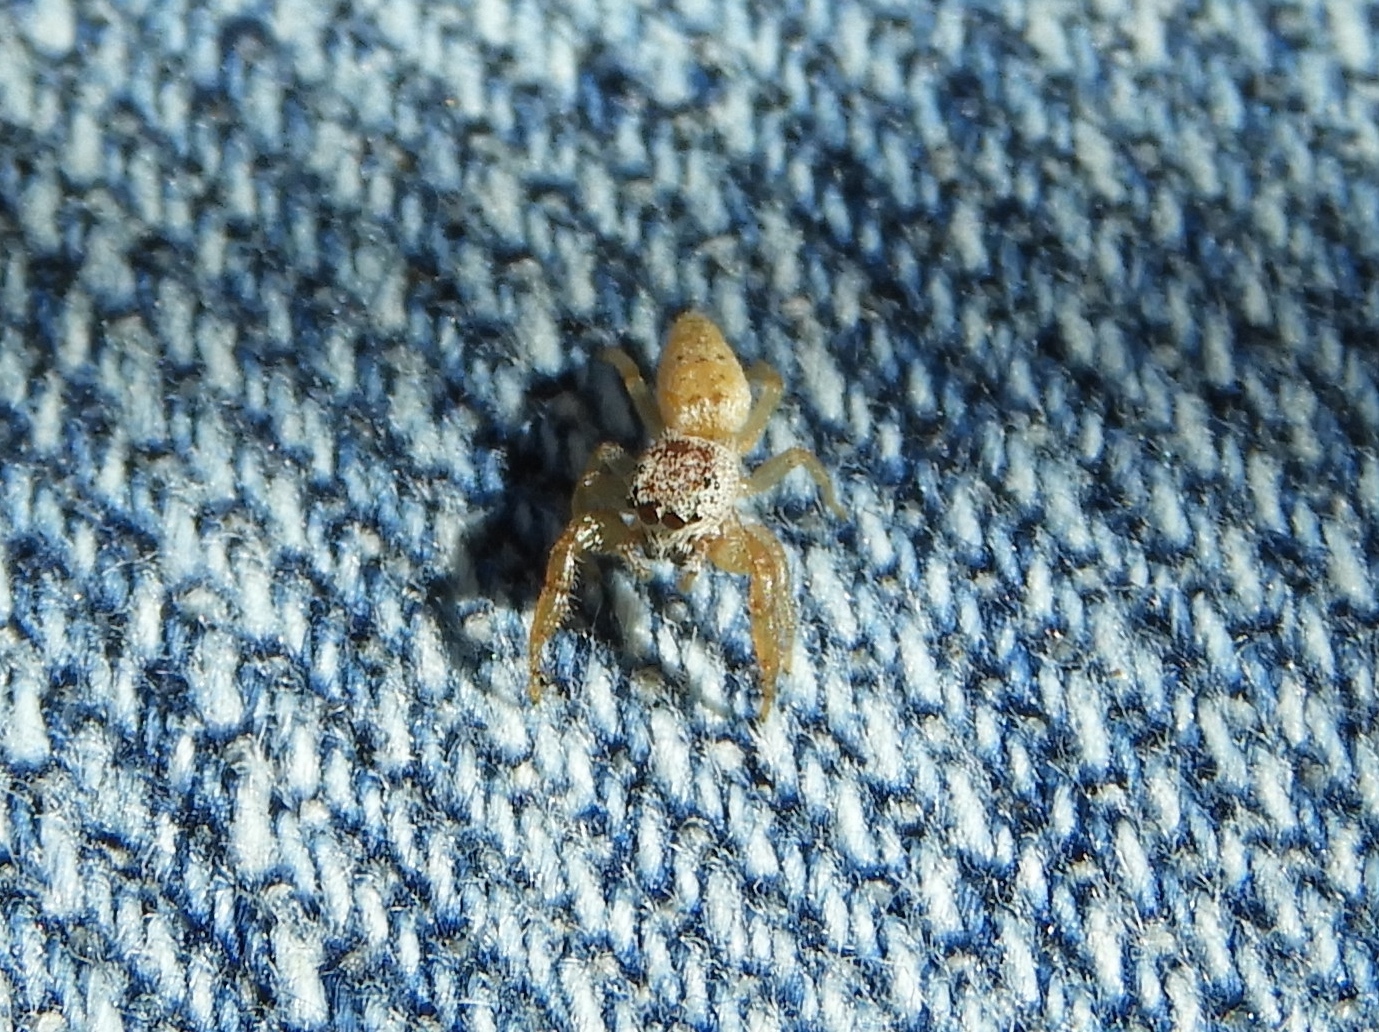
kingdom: Animalia
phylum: Arthropoda
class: Arachnida
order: Araneae
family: Salticidae
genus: Hentzia
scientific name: Hentzia
